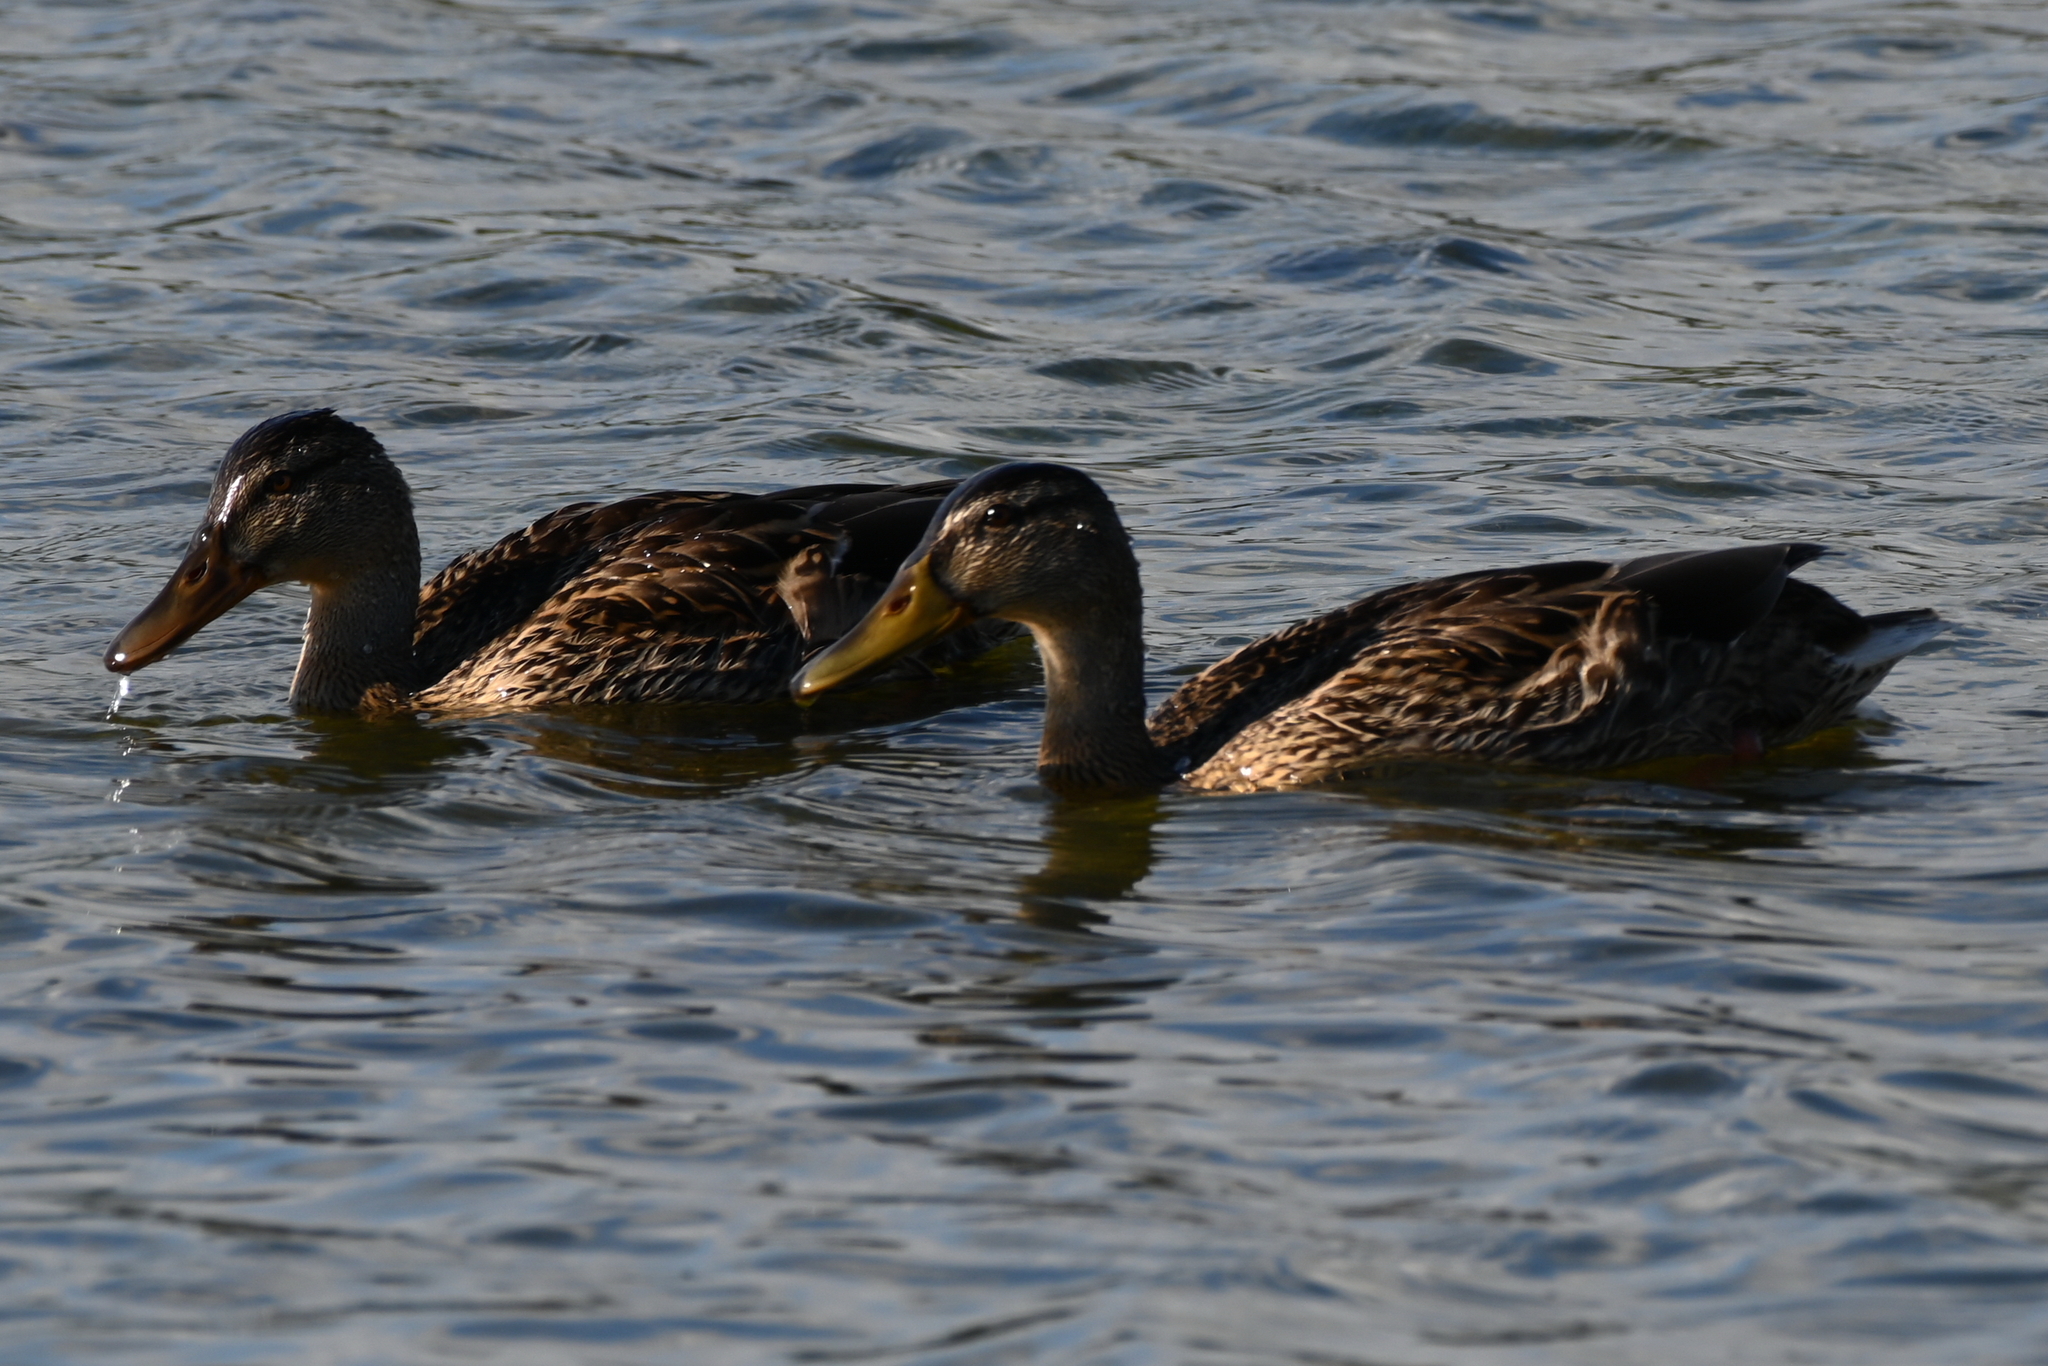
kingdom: Animalia
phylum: Chordata
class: Aves
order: Anseriformes
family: Anatidae
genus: Anas
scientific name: Anas platyrhynchos
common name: Mallard
